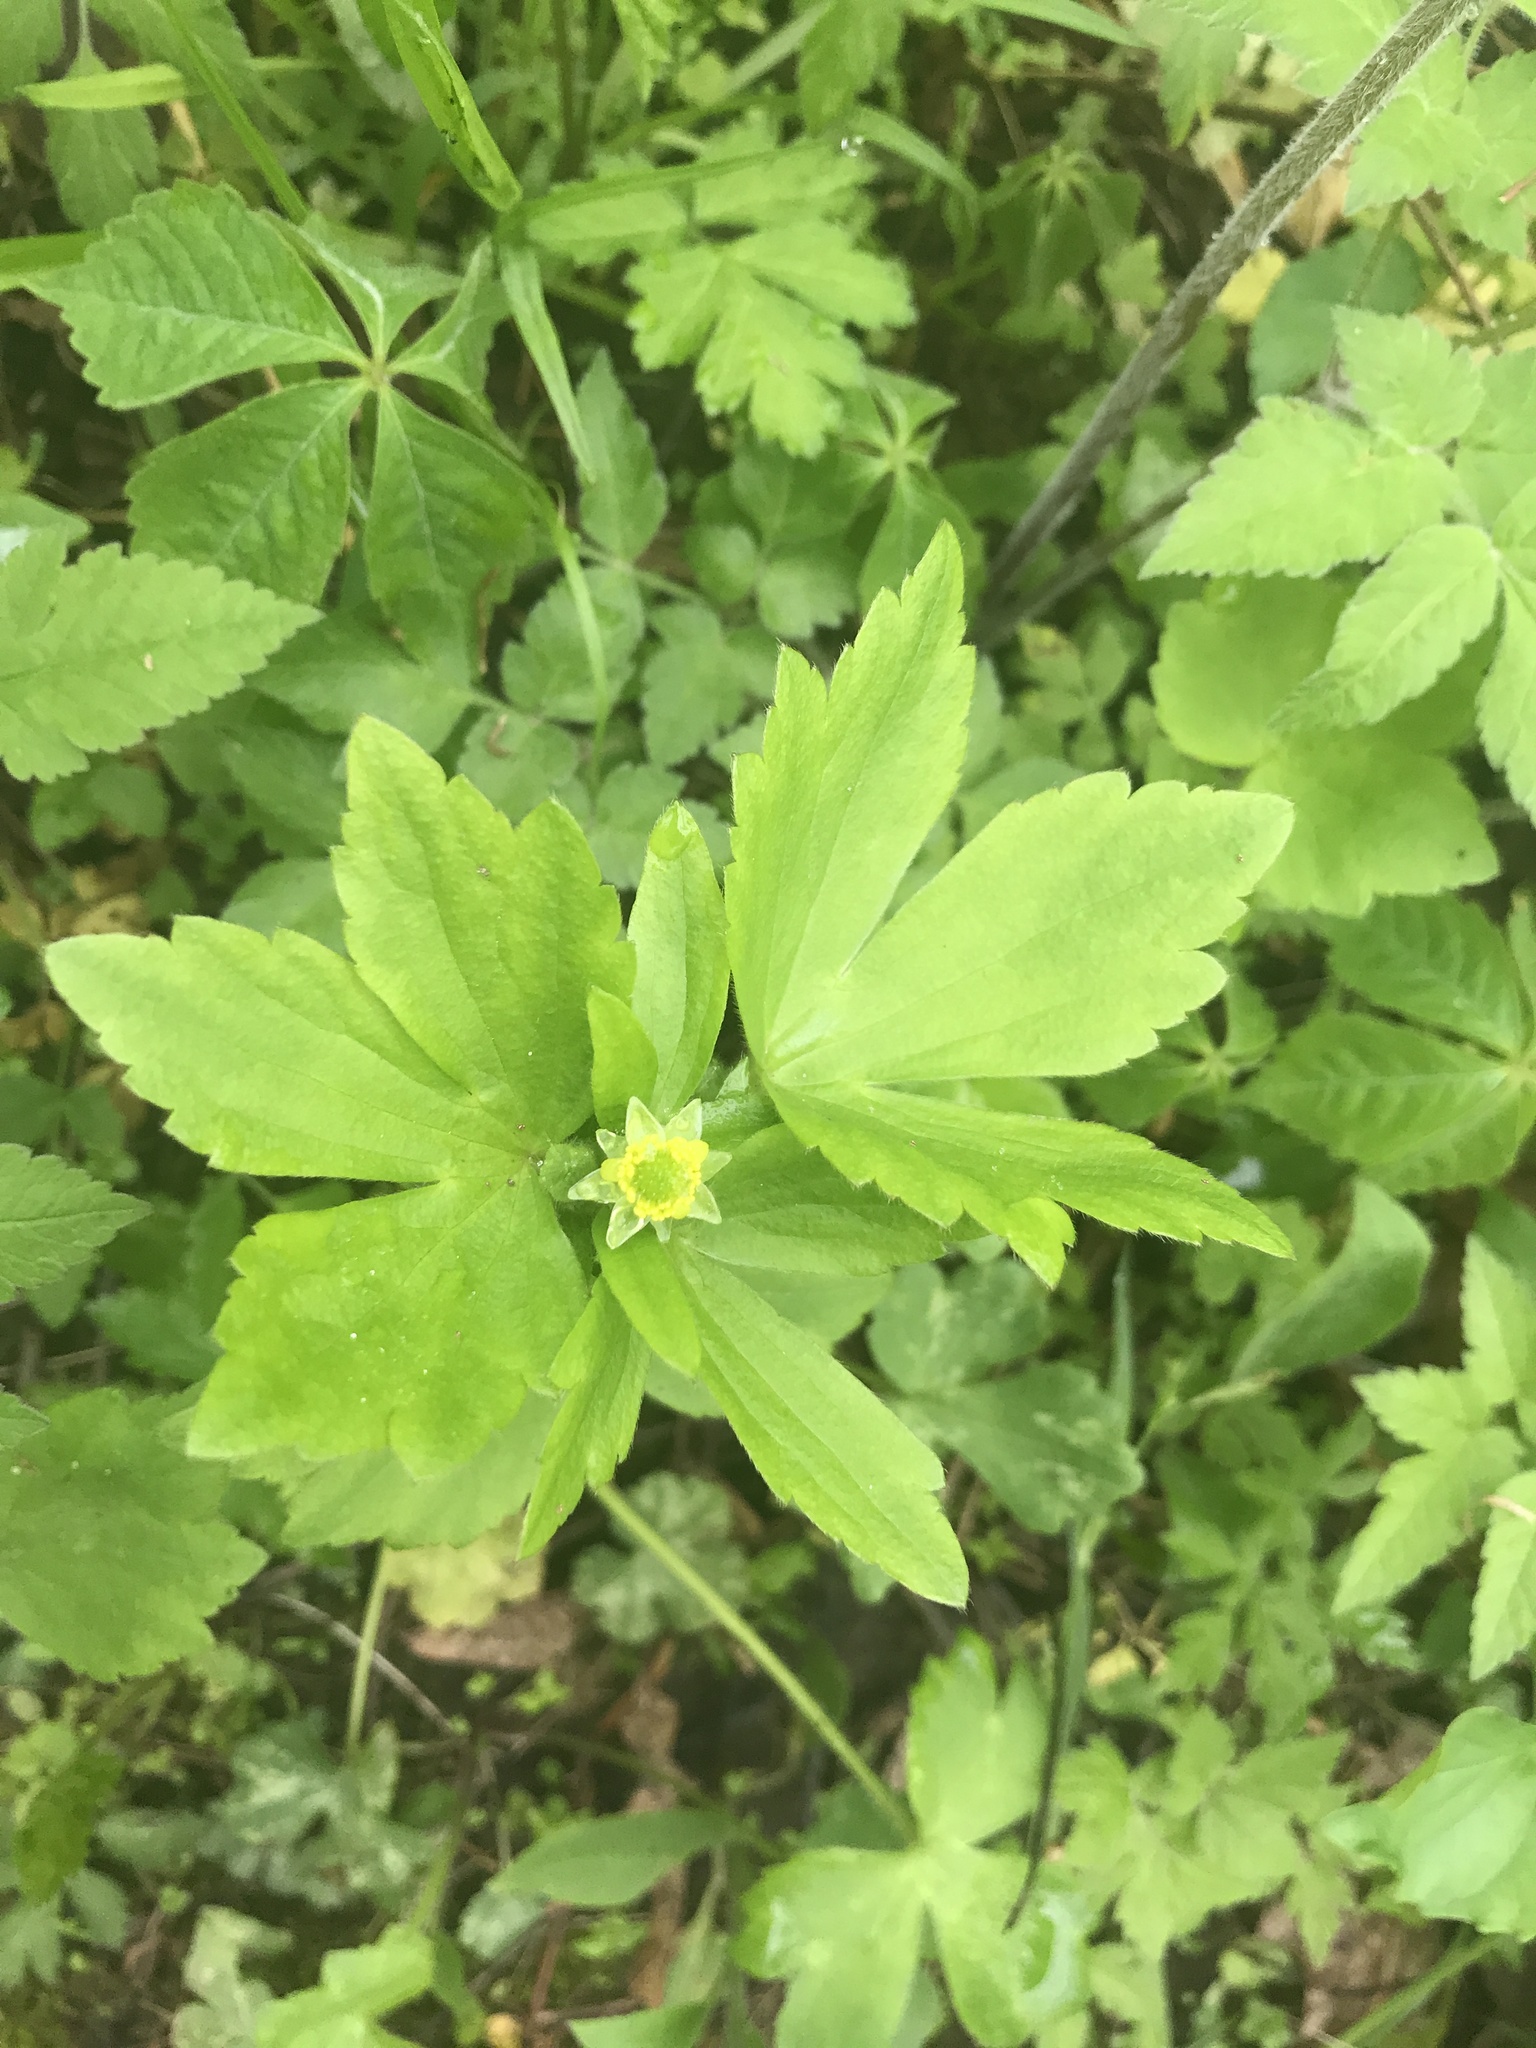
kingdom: Plantae
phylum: Tracheophyta
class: Magnoliopsida
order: Ranunculales
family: Ranunculaceae
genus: Ranunculus
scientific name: Ranunculus recurvatus
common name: Blisterwort
